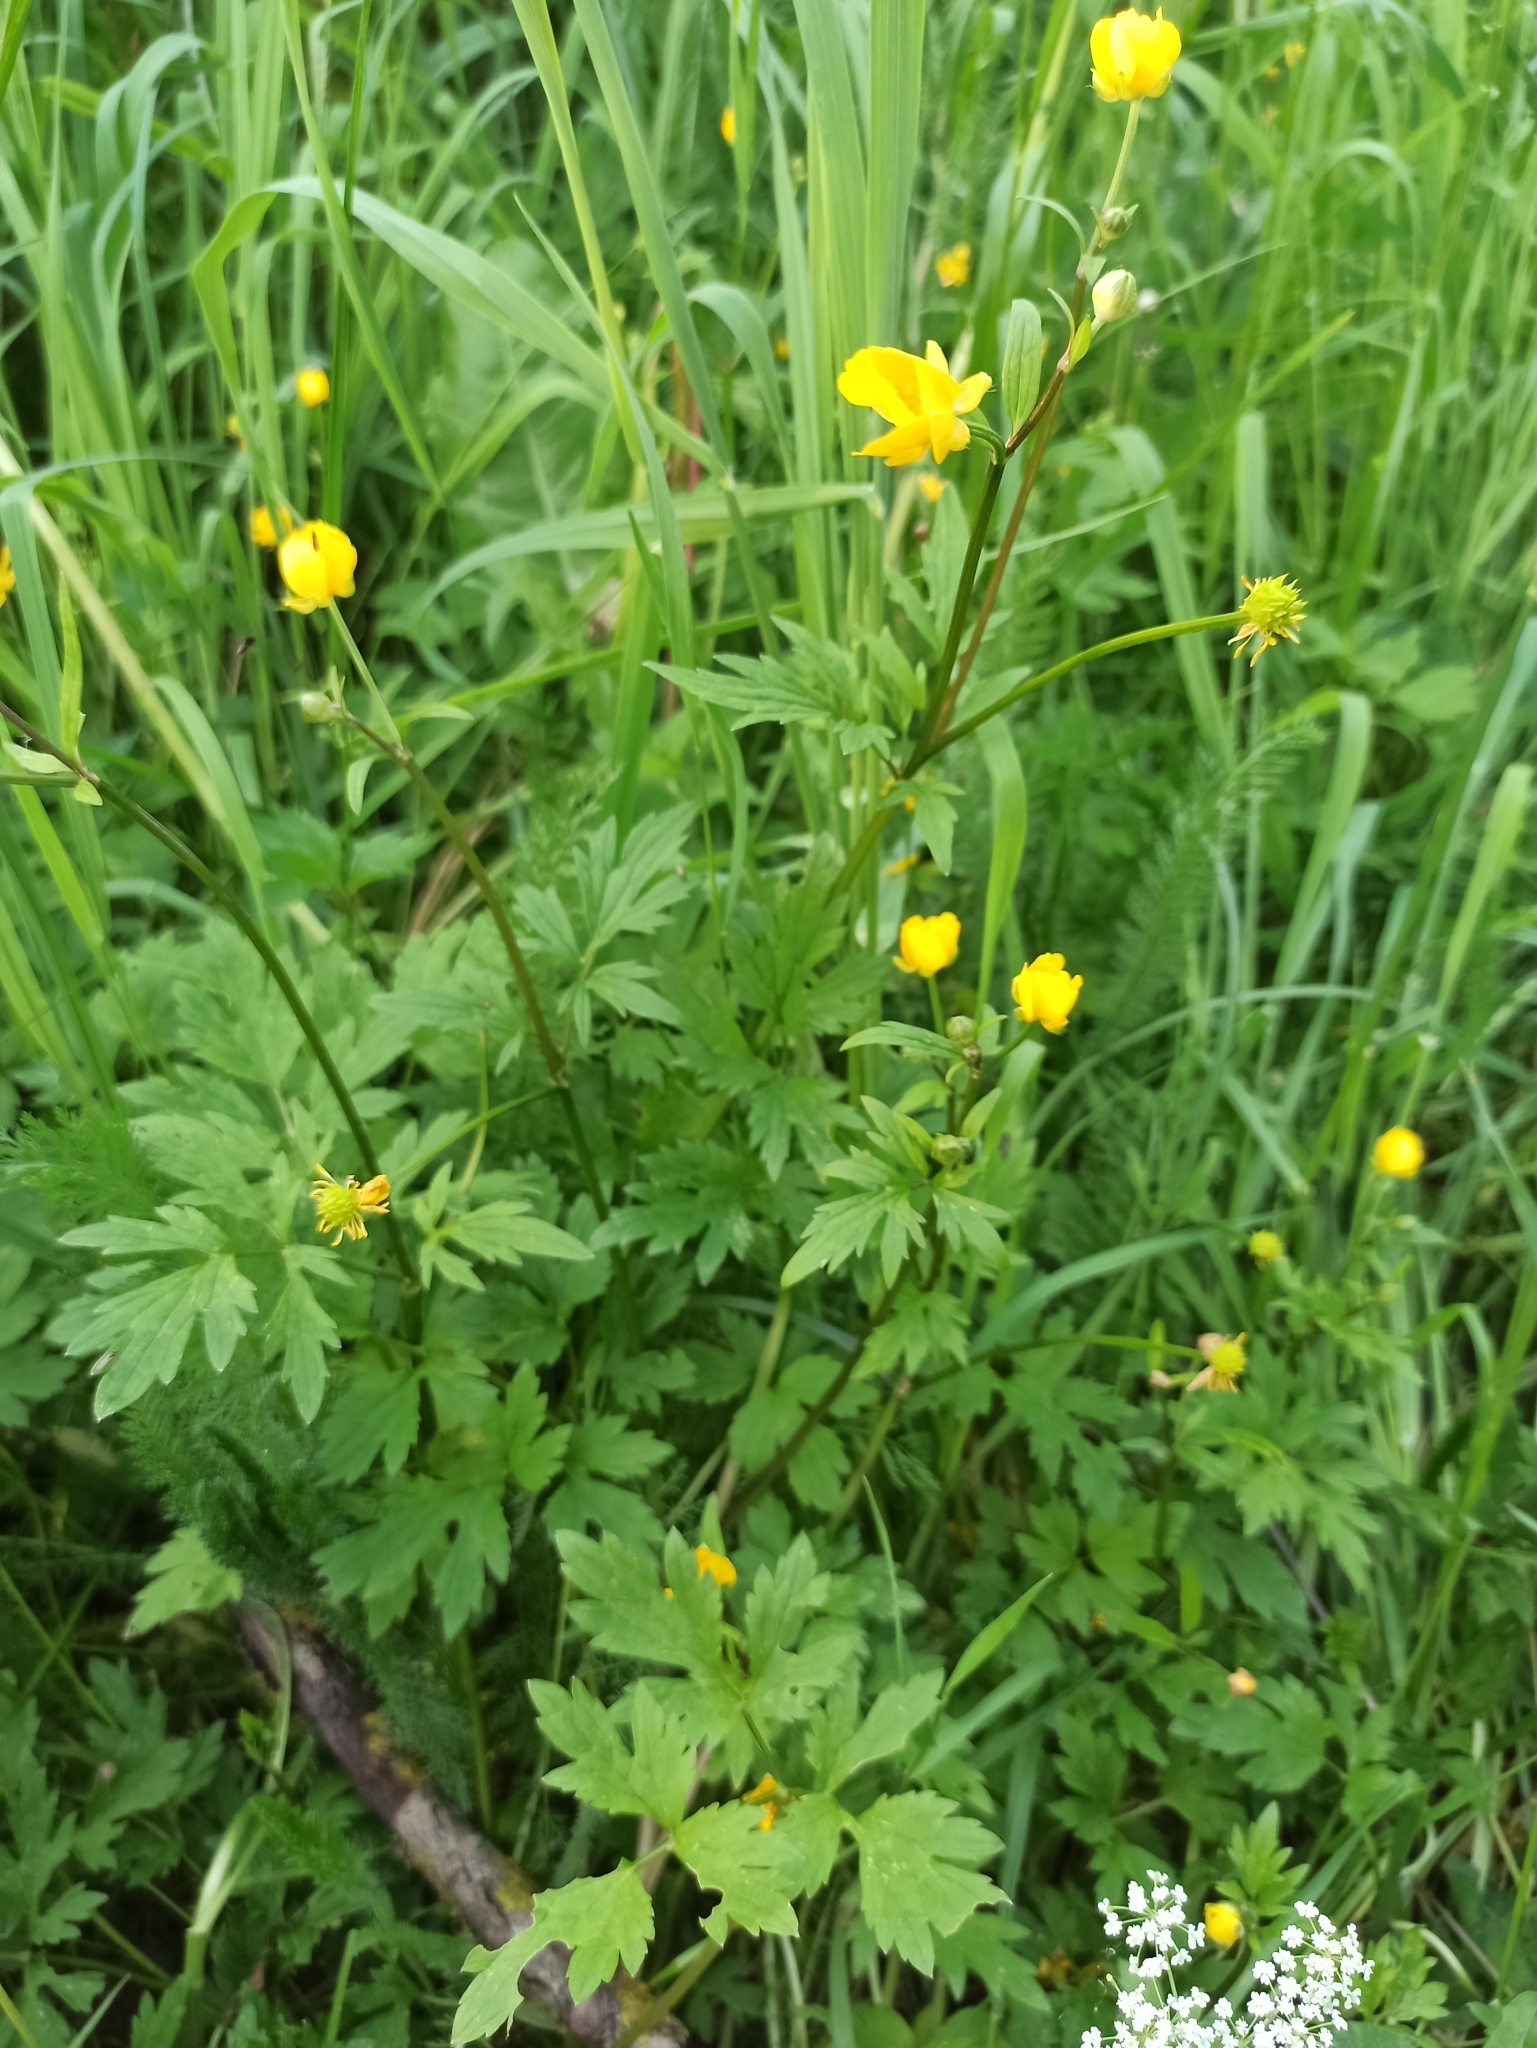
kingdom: Plantae
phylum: Tracheophyta
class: Magnoliopsida
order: Ranunculales
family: Ranunculaceae
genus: Ranunculus
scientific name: Ranunculus repens
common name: Creeping buttercup
